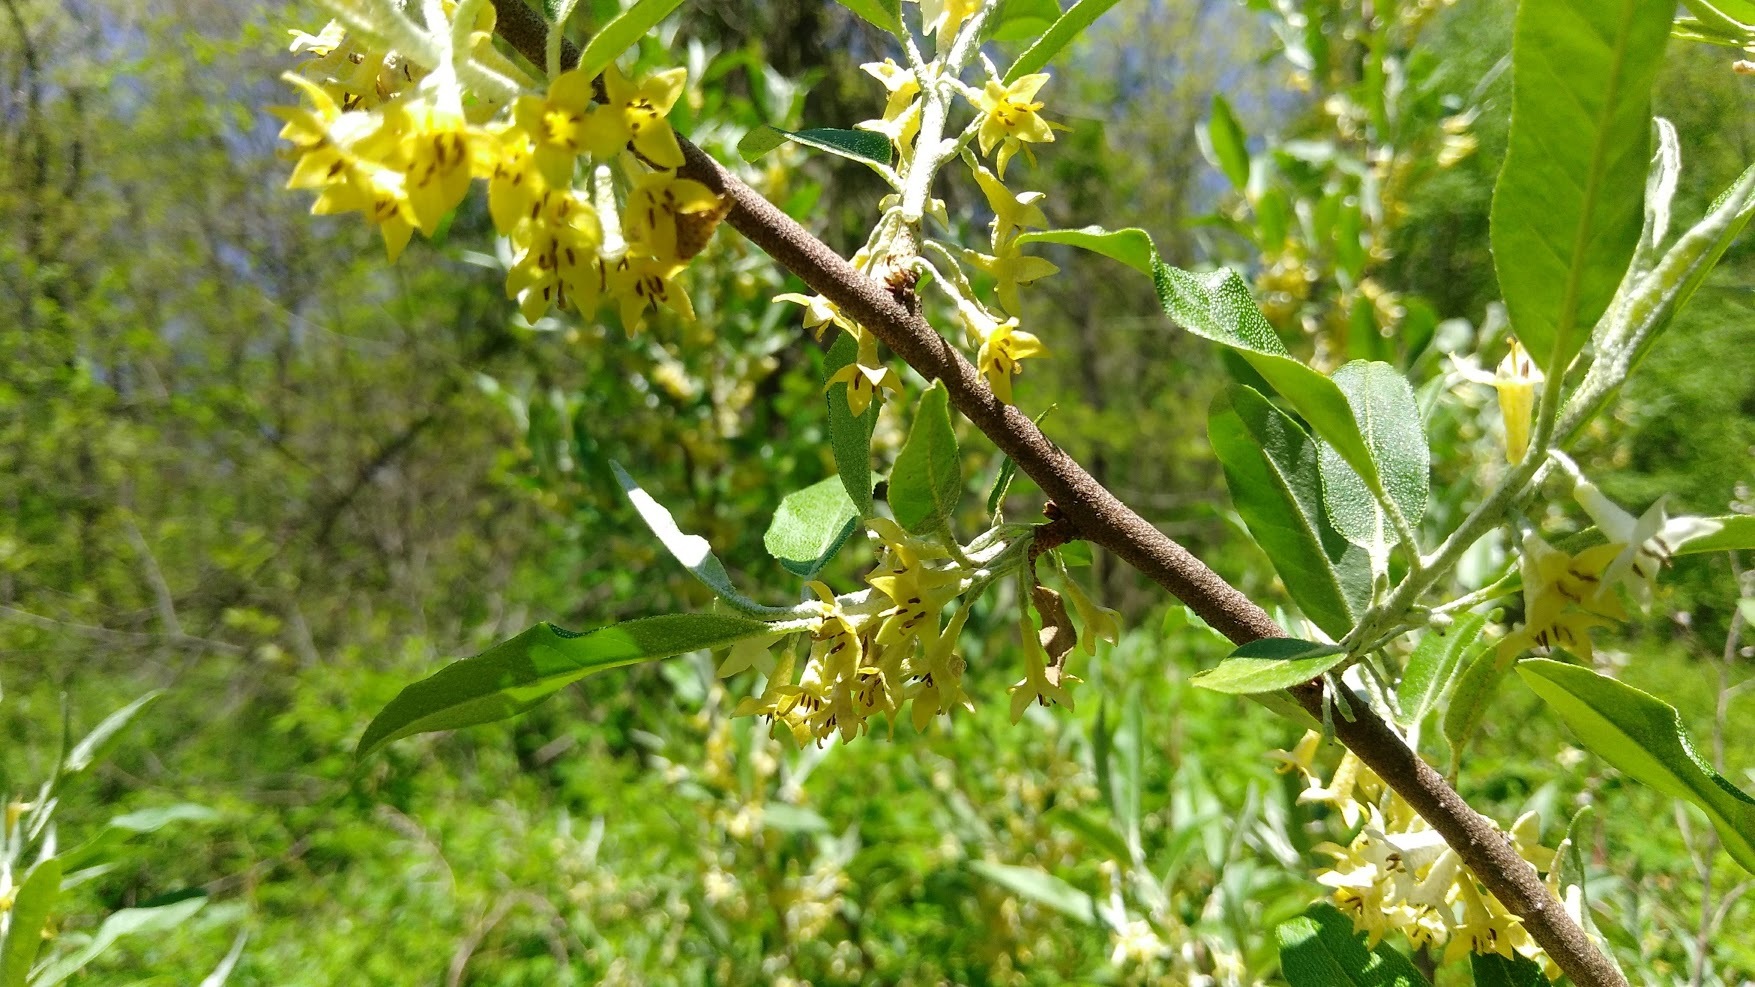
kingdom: Plantae
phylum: Tracheophyta
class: Magnoliopsida
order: Rosales
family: Elaeagnaceae
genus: Elaeagnus
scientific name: Elaeagnus umbellata
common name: Autumn olive
